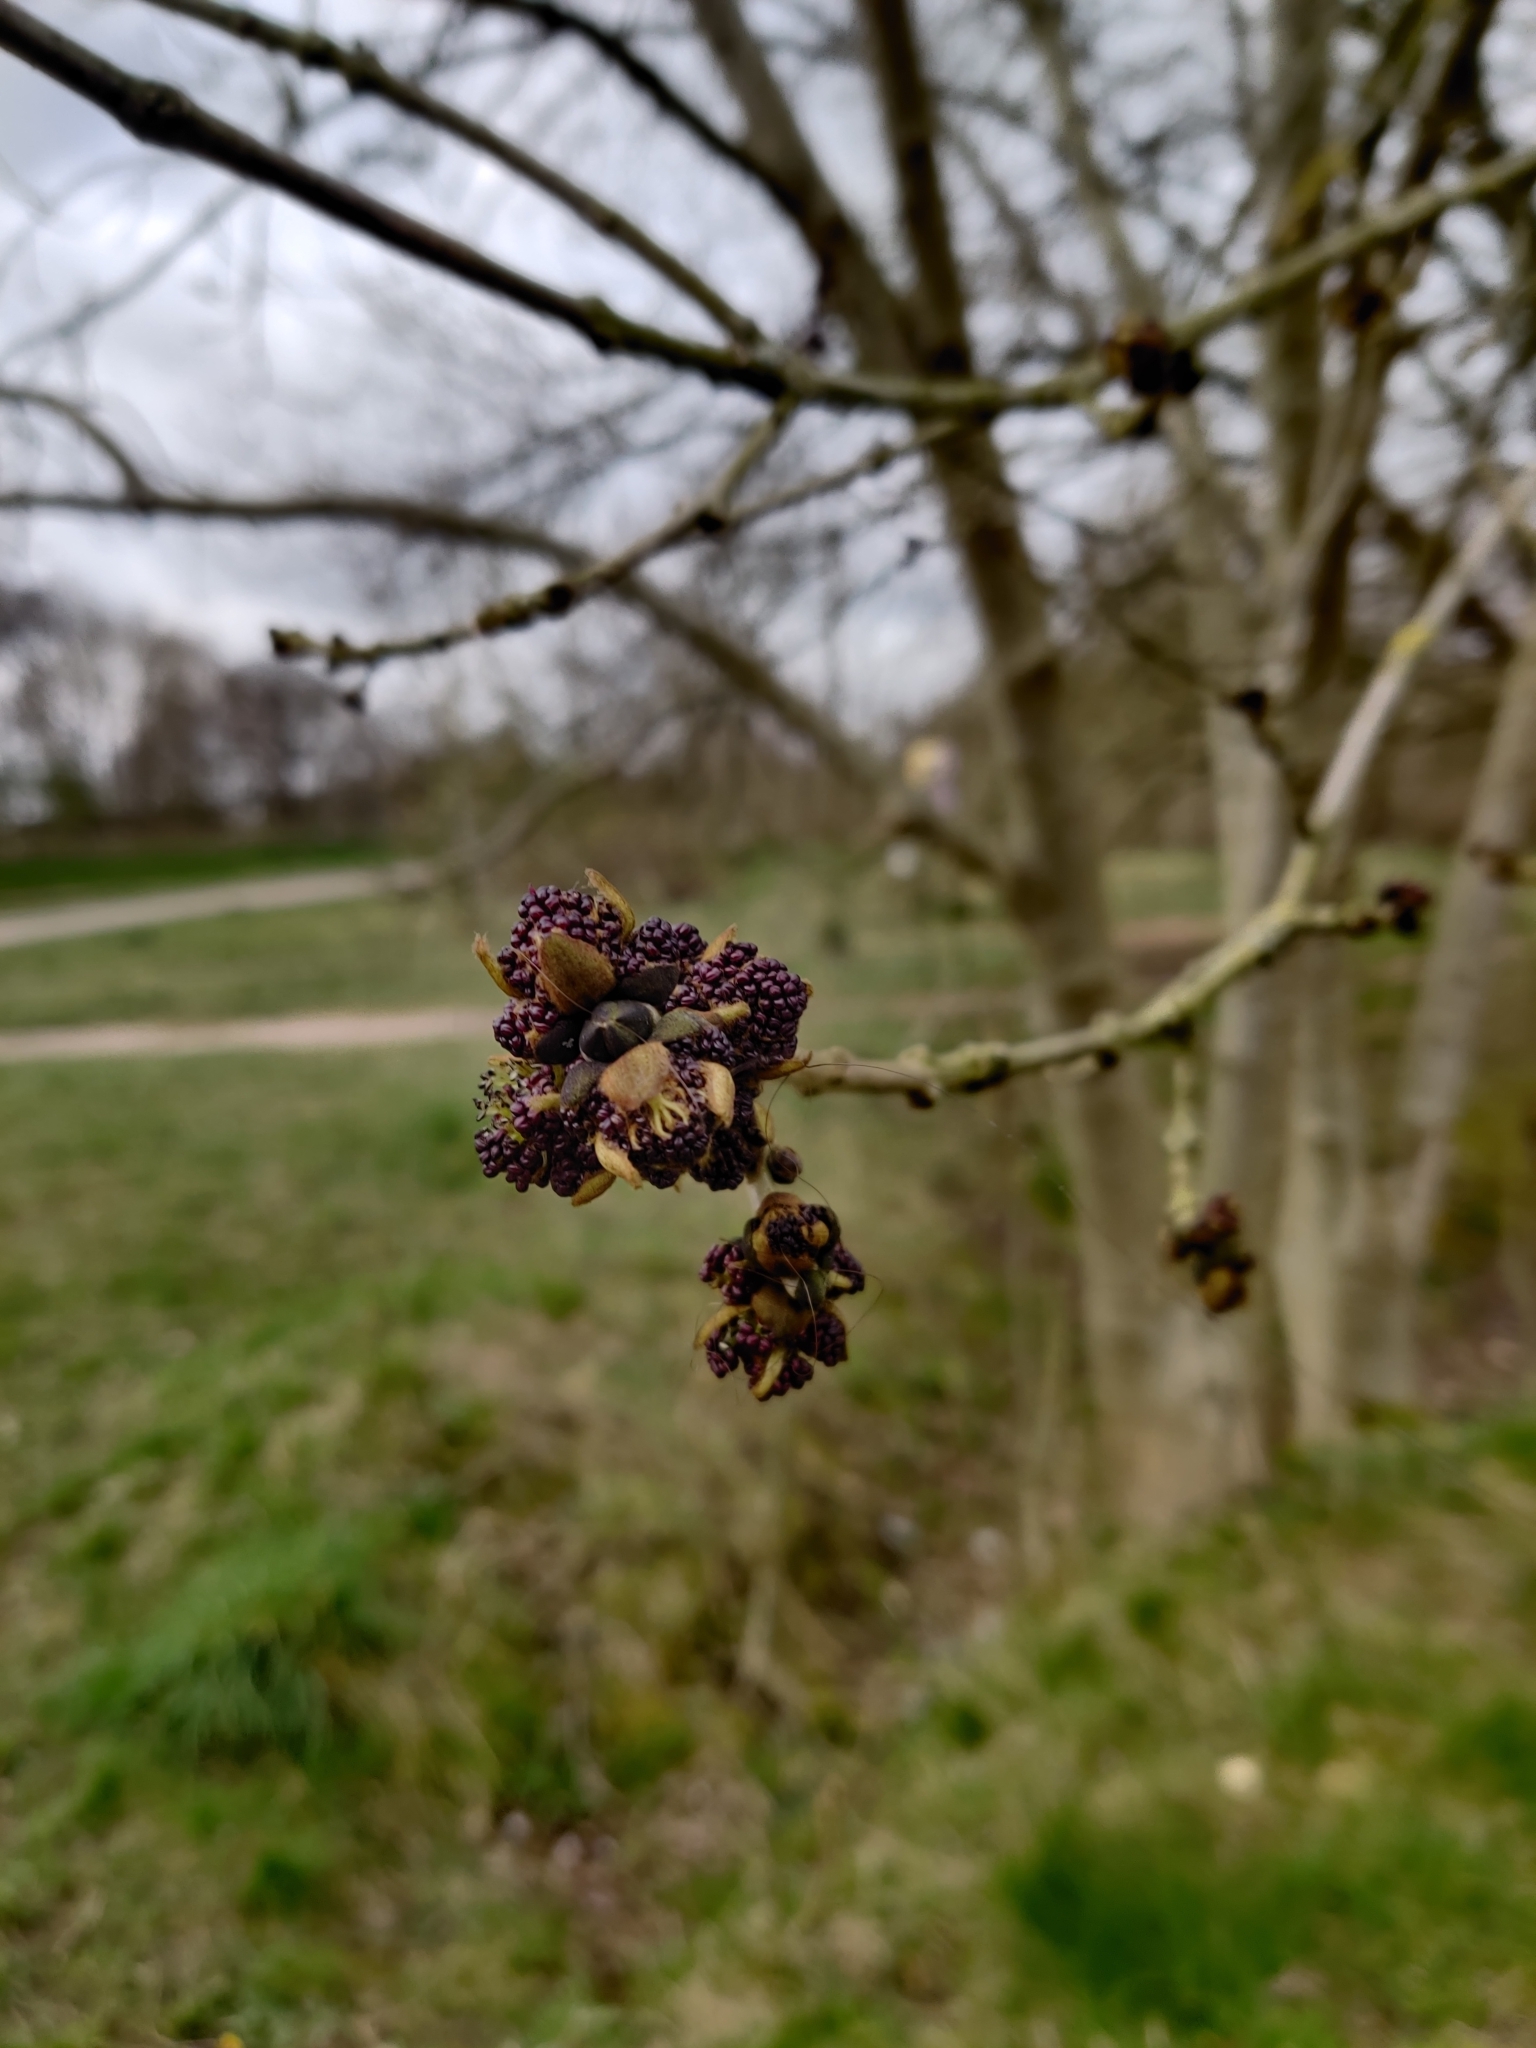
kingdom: Plantae
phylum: Tracheophyta
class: Magnoliopsida
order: Lamiales
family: Oleaceae
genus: Fraxinus
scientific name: Fraxinus excelsior
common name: European ash
